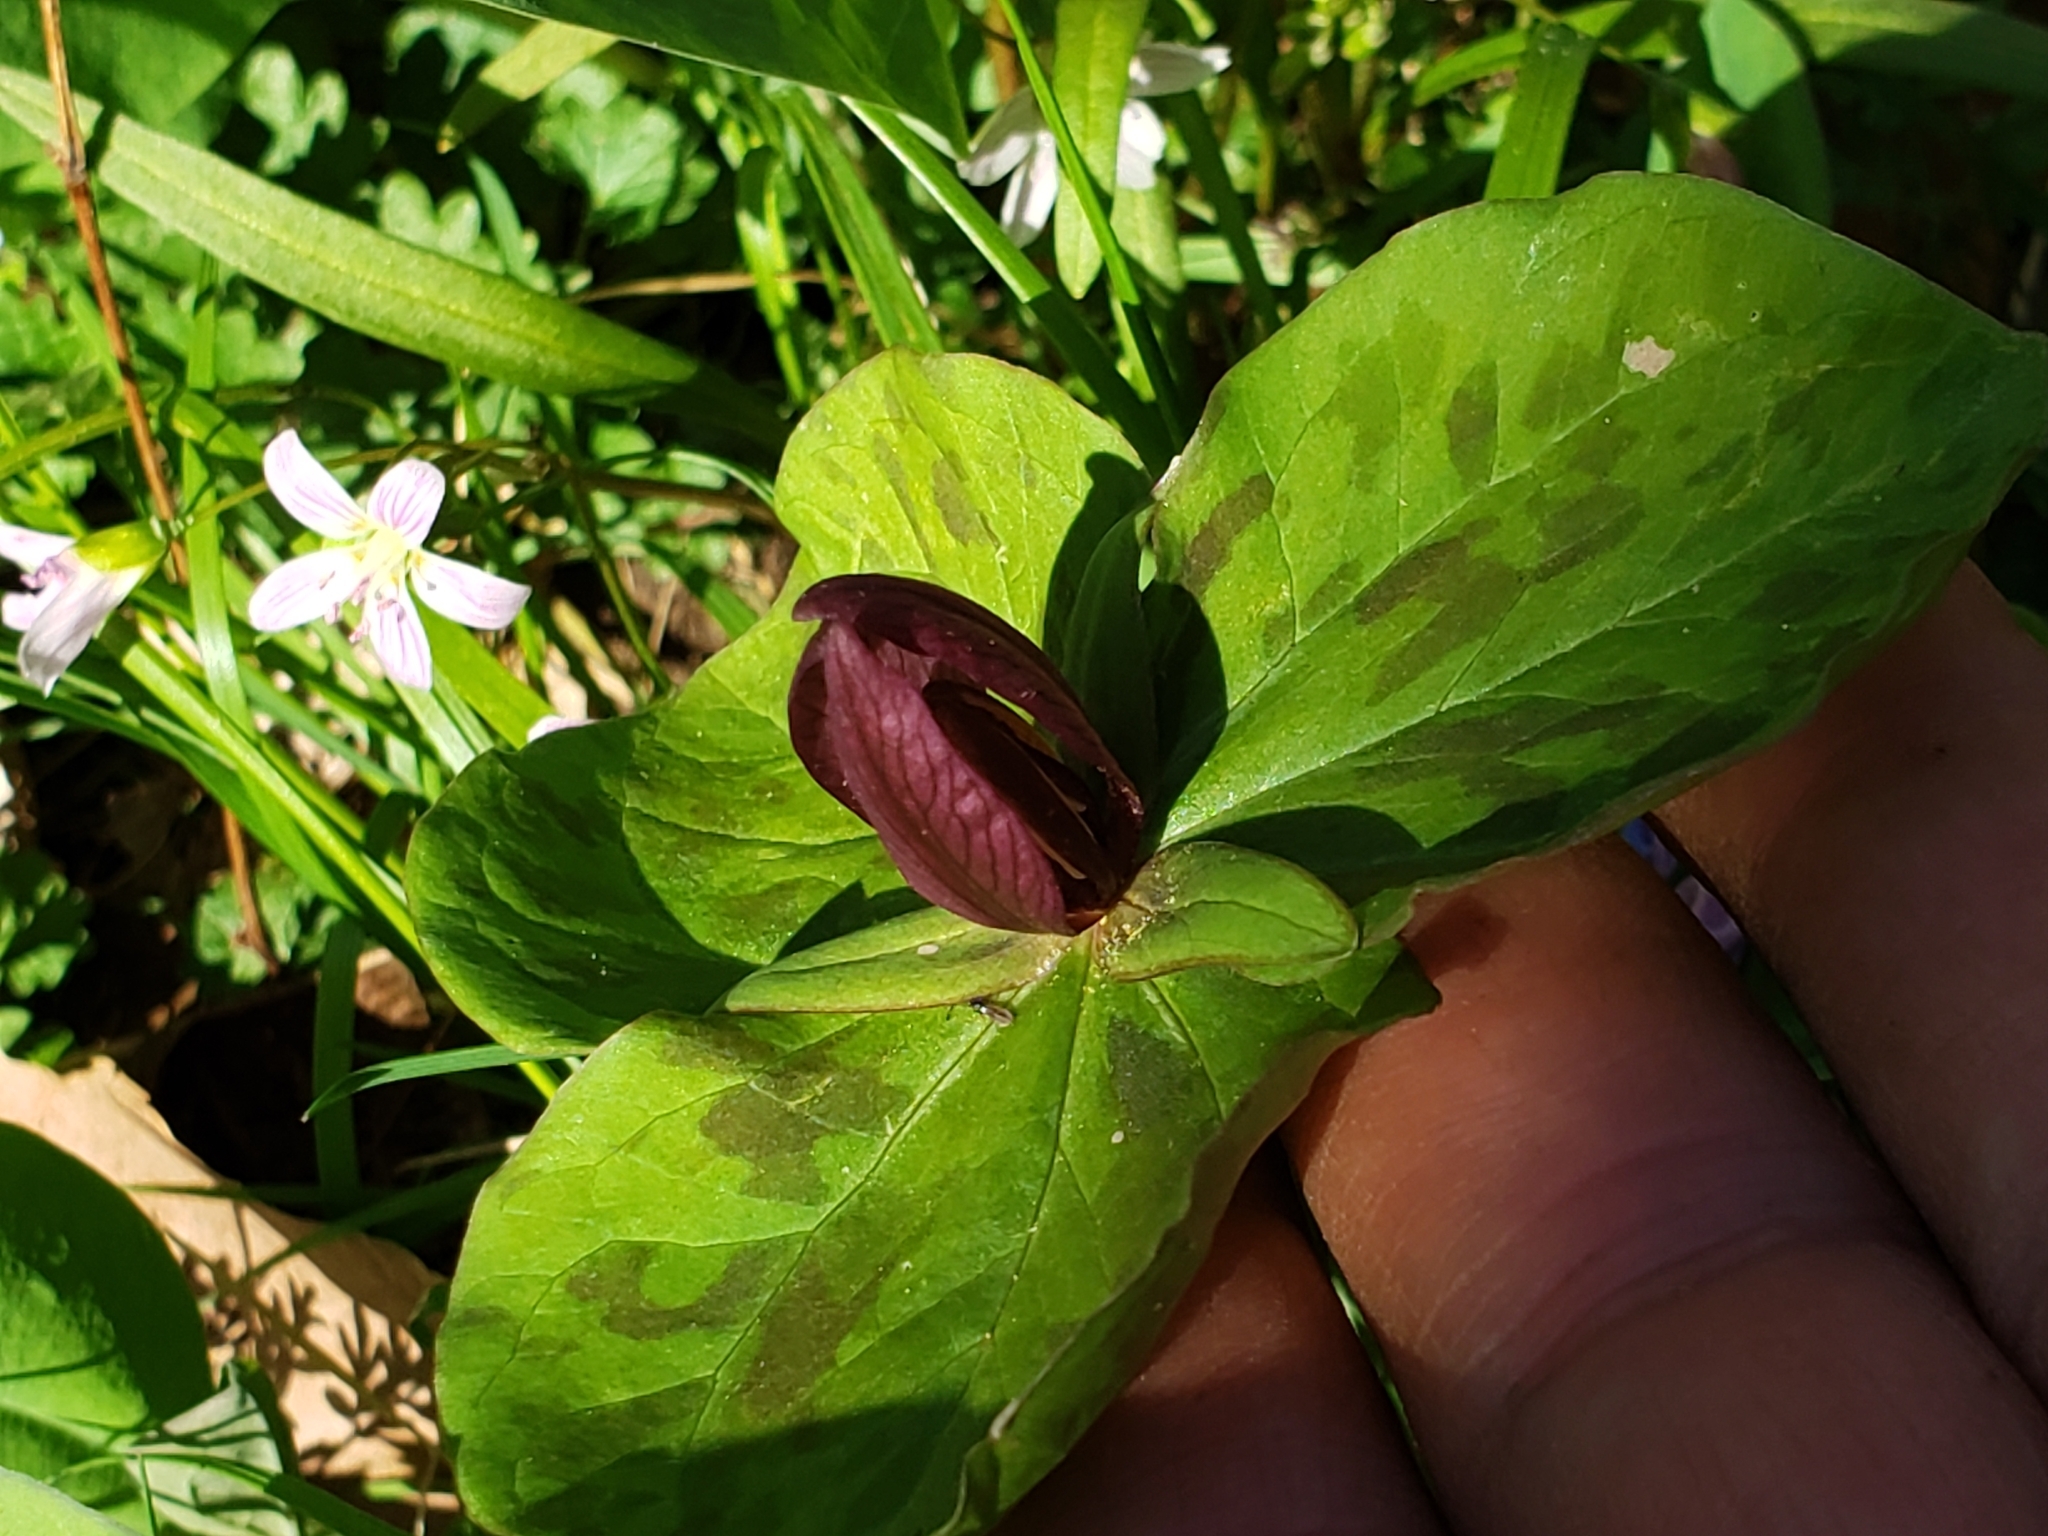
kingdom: Plantae
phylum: Tracheophyta
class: Liliopsida
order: Liliales
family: Melanthiaceae
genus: Trillium
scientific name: Trillium sessile
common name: Sessile trillium
